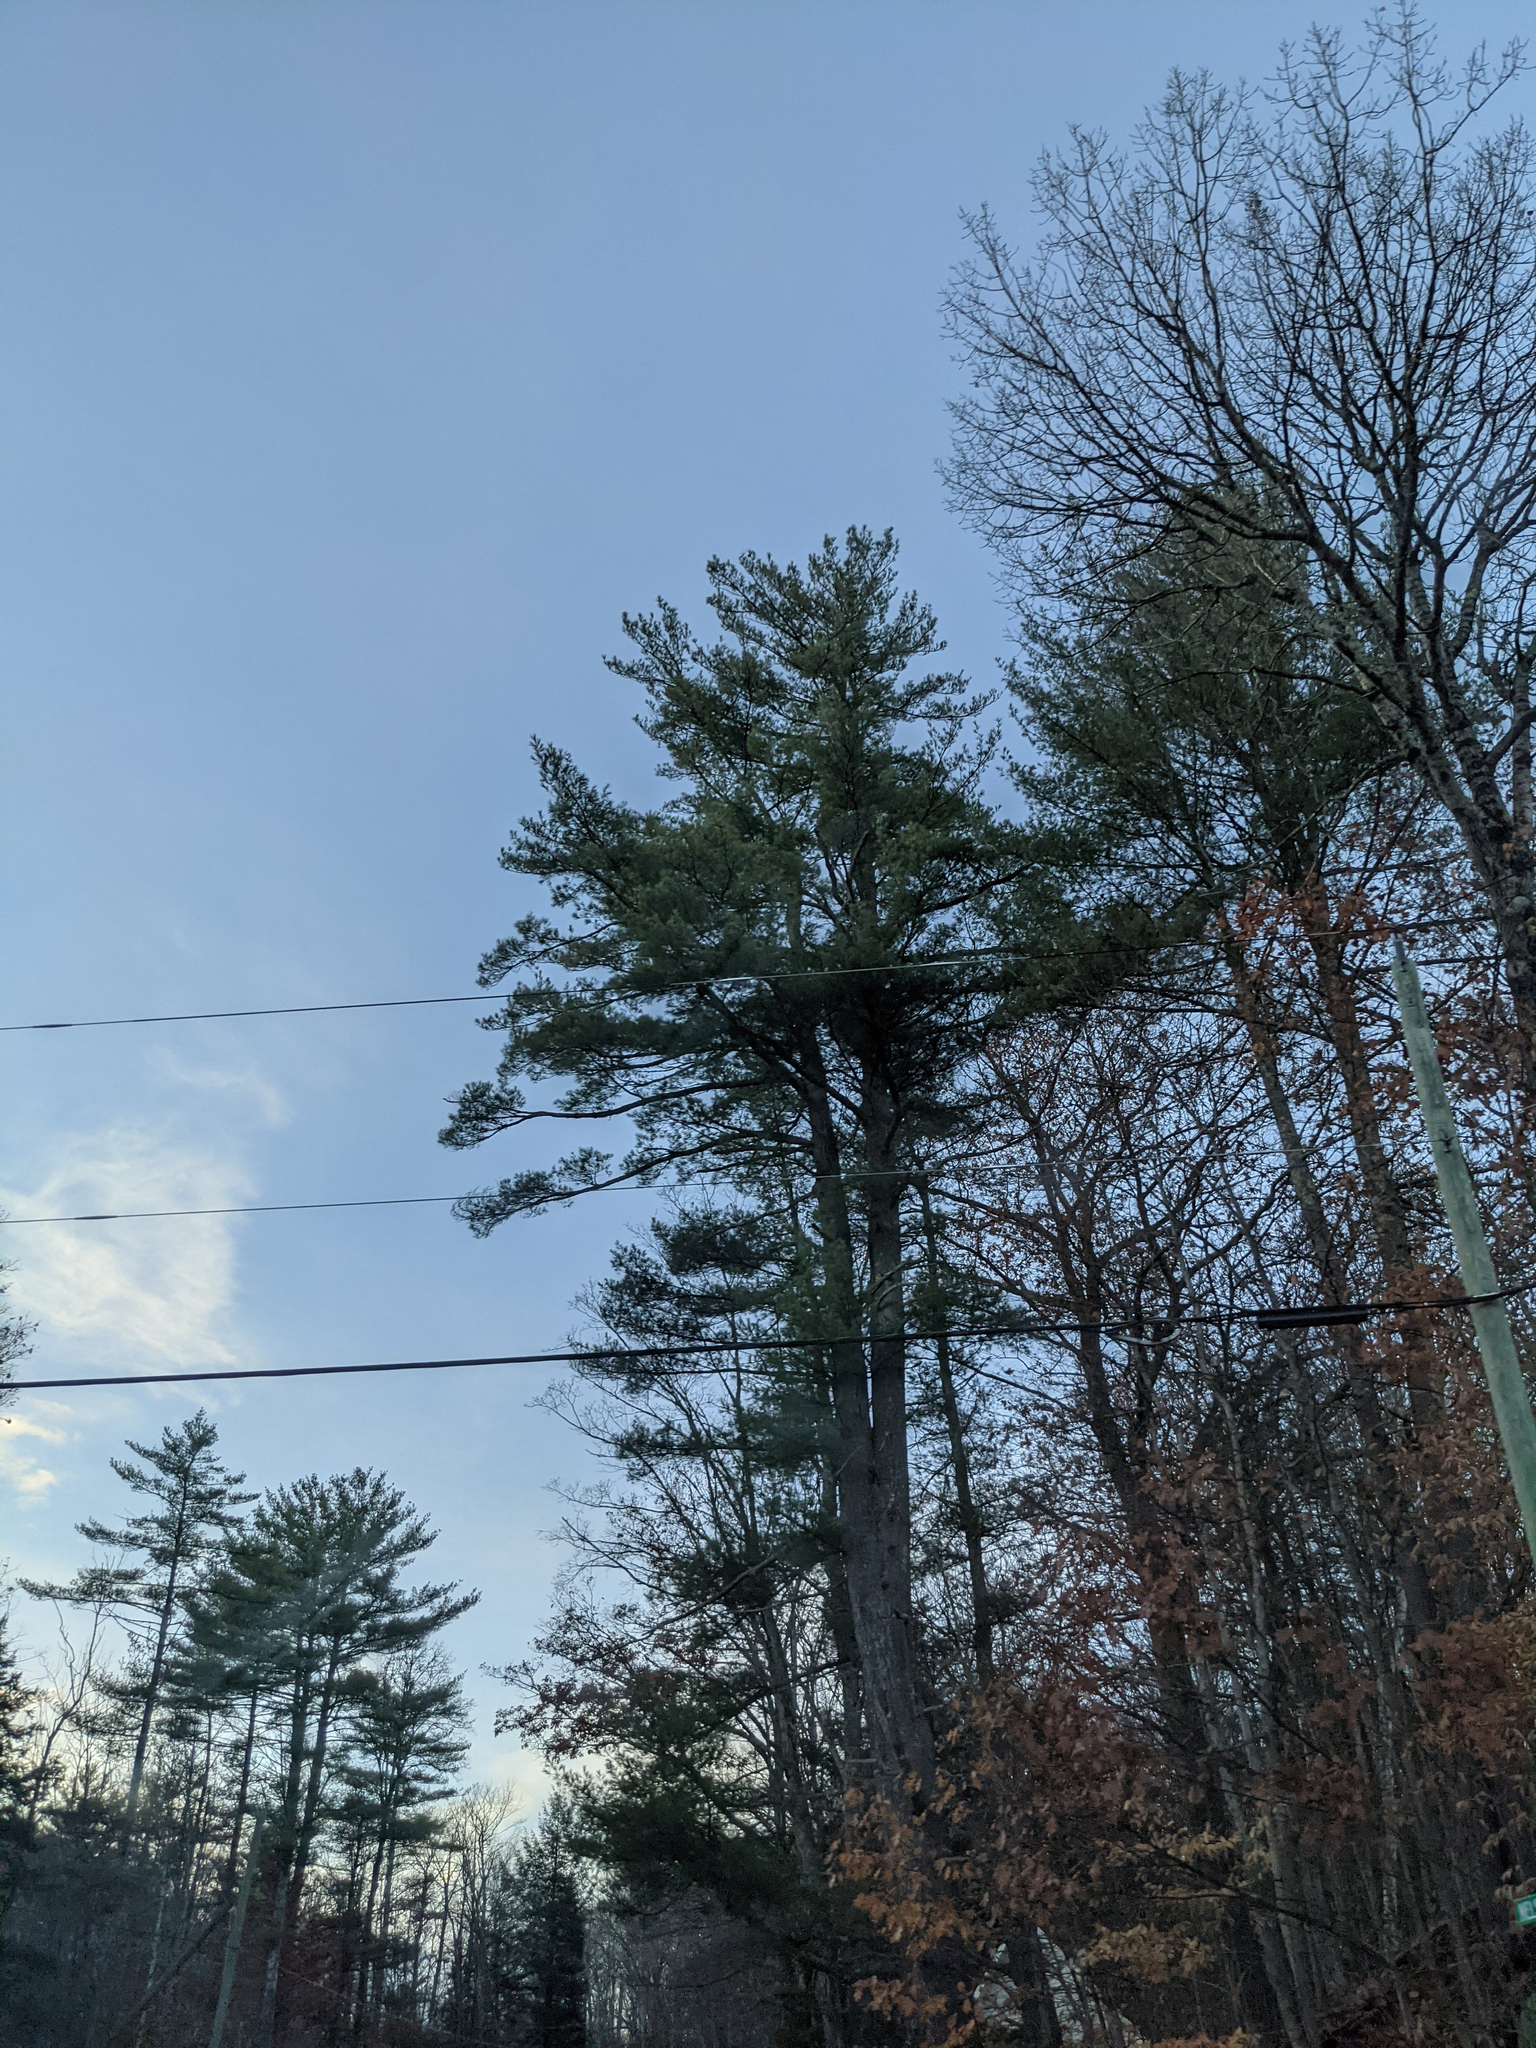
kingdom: Plantae
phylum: Tracheophyta
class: Pinopsida
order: Pinales
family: Pinaceae
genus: Pinus
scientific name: Pinus strobus
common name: Weymouth pine
